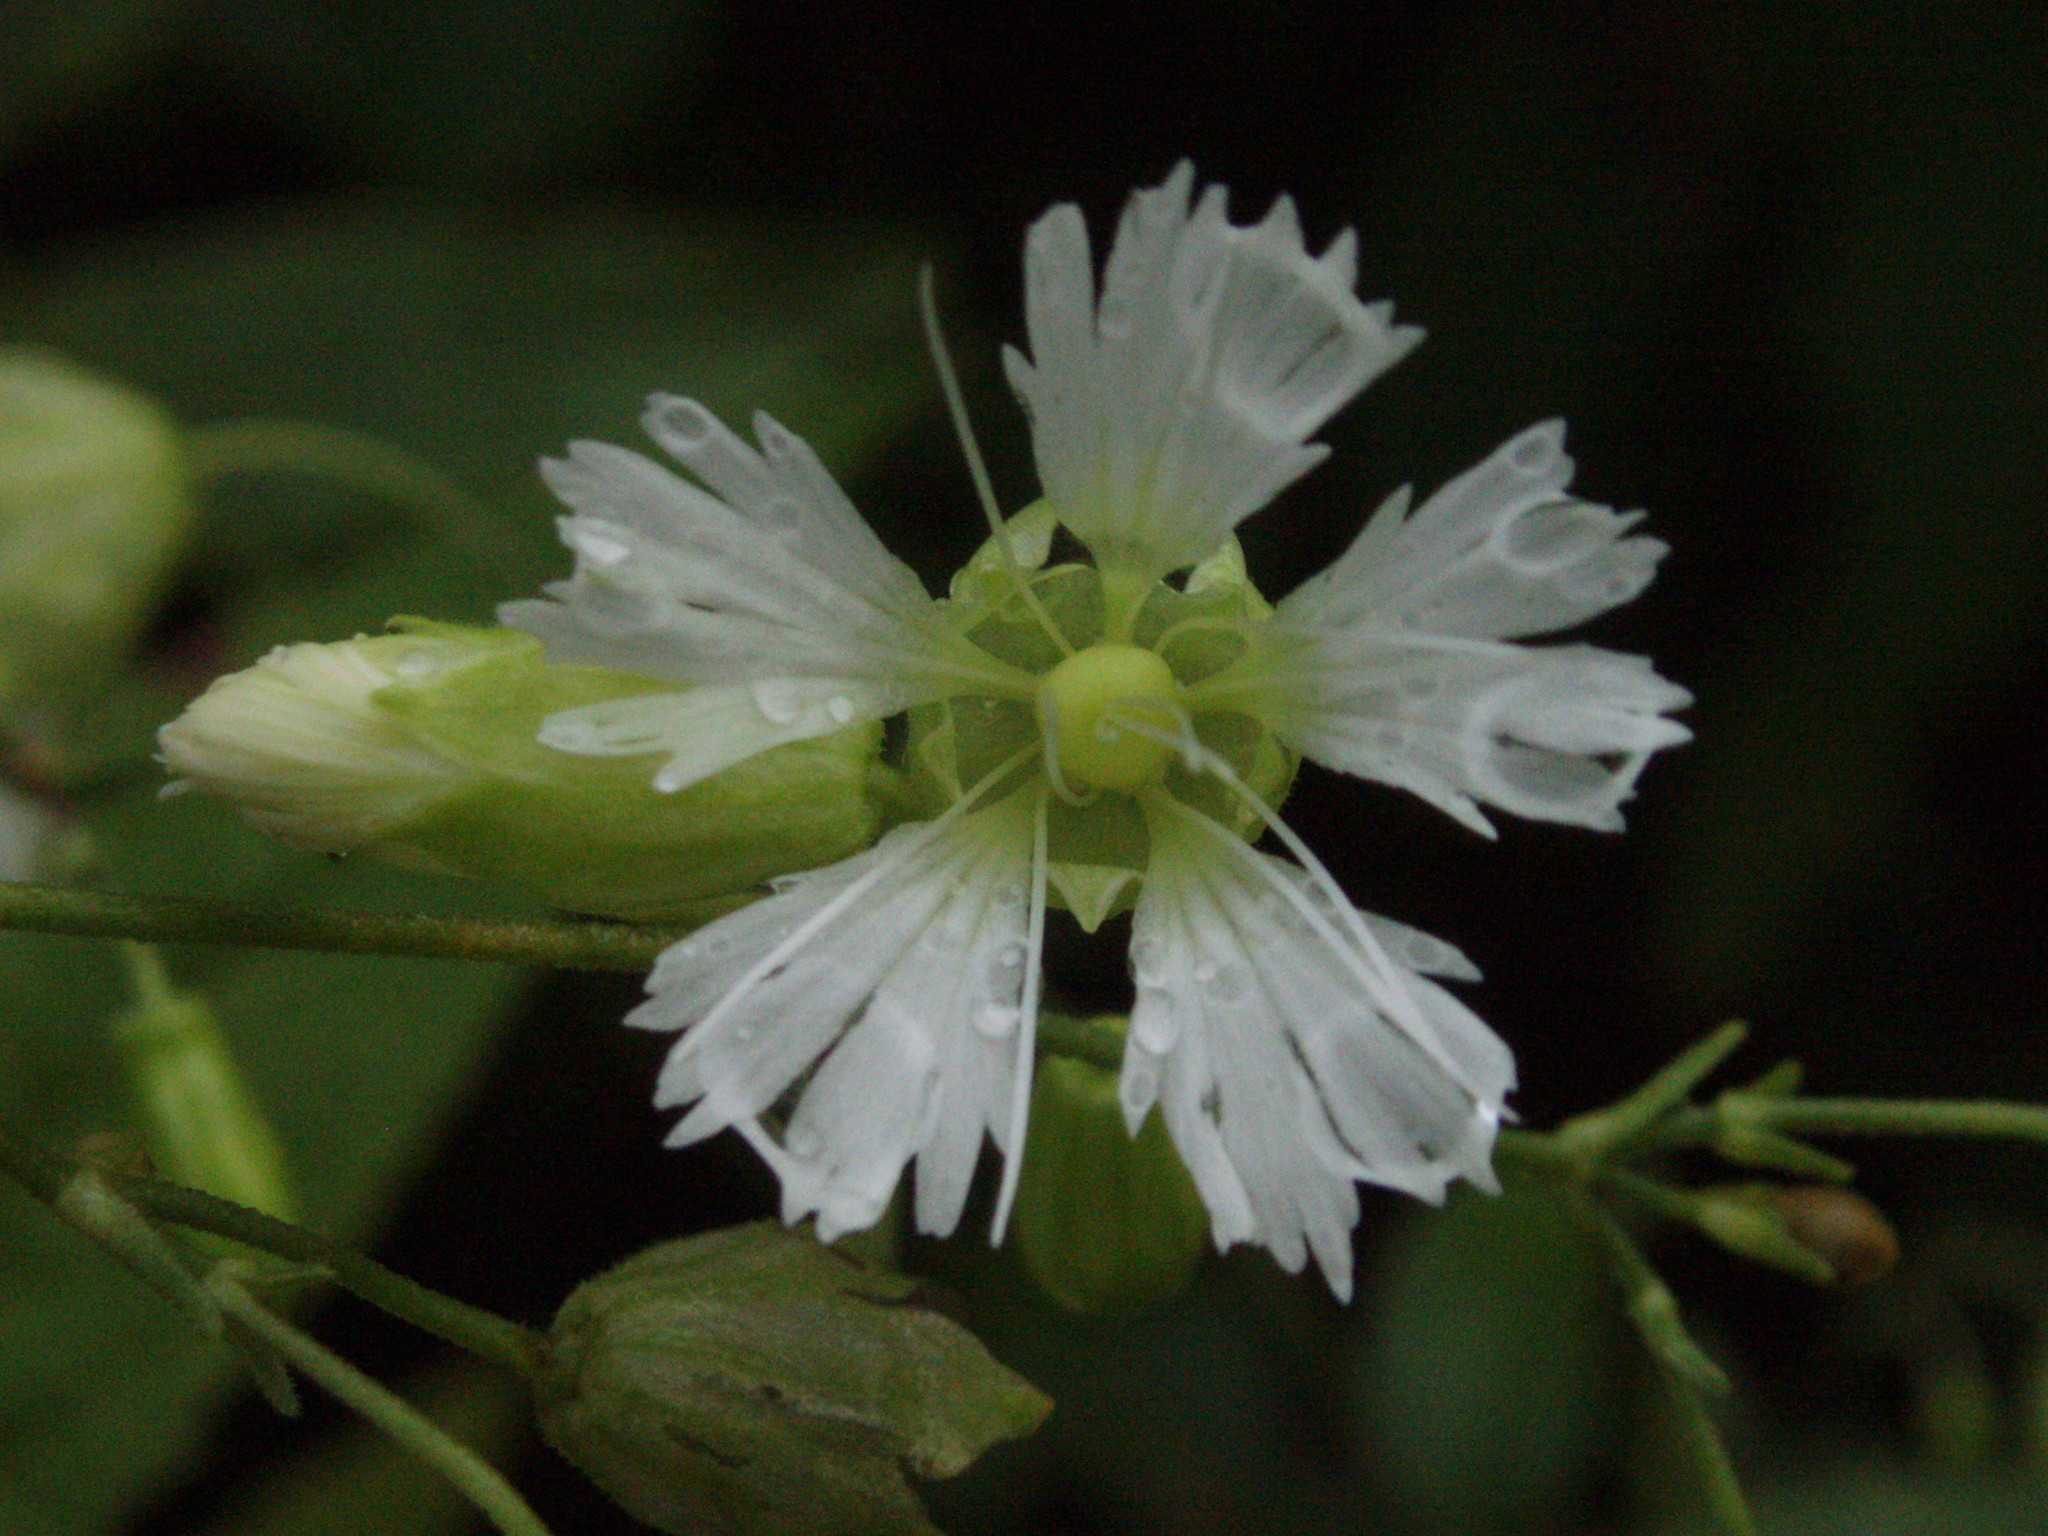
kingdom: Plantae
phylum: Tracheophyta
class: Magnoliopsida
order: Caryophyllales
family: Caryophyllaceae
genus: Silene
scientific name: Silene stellata
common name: Starry campion
